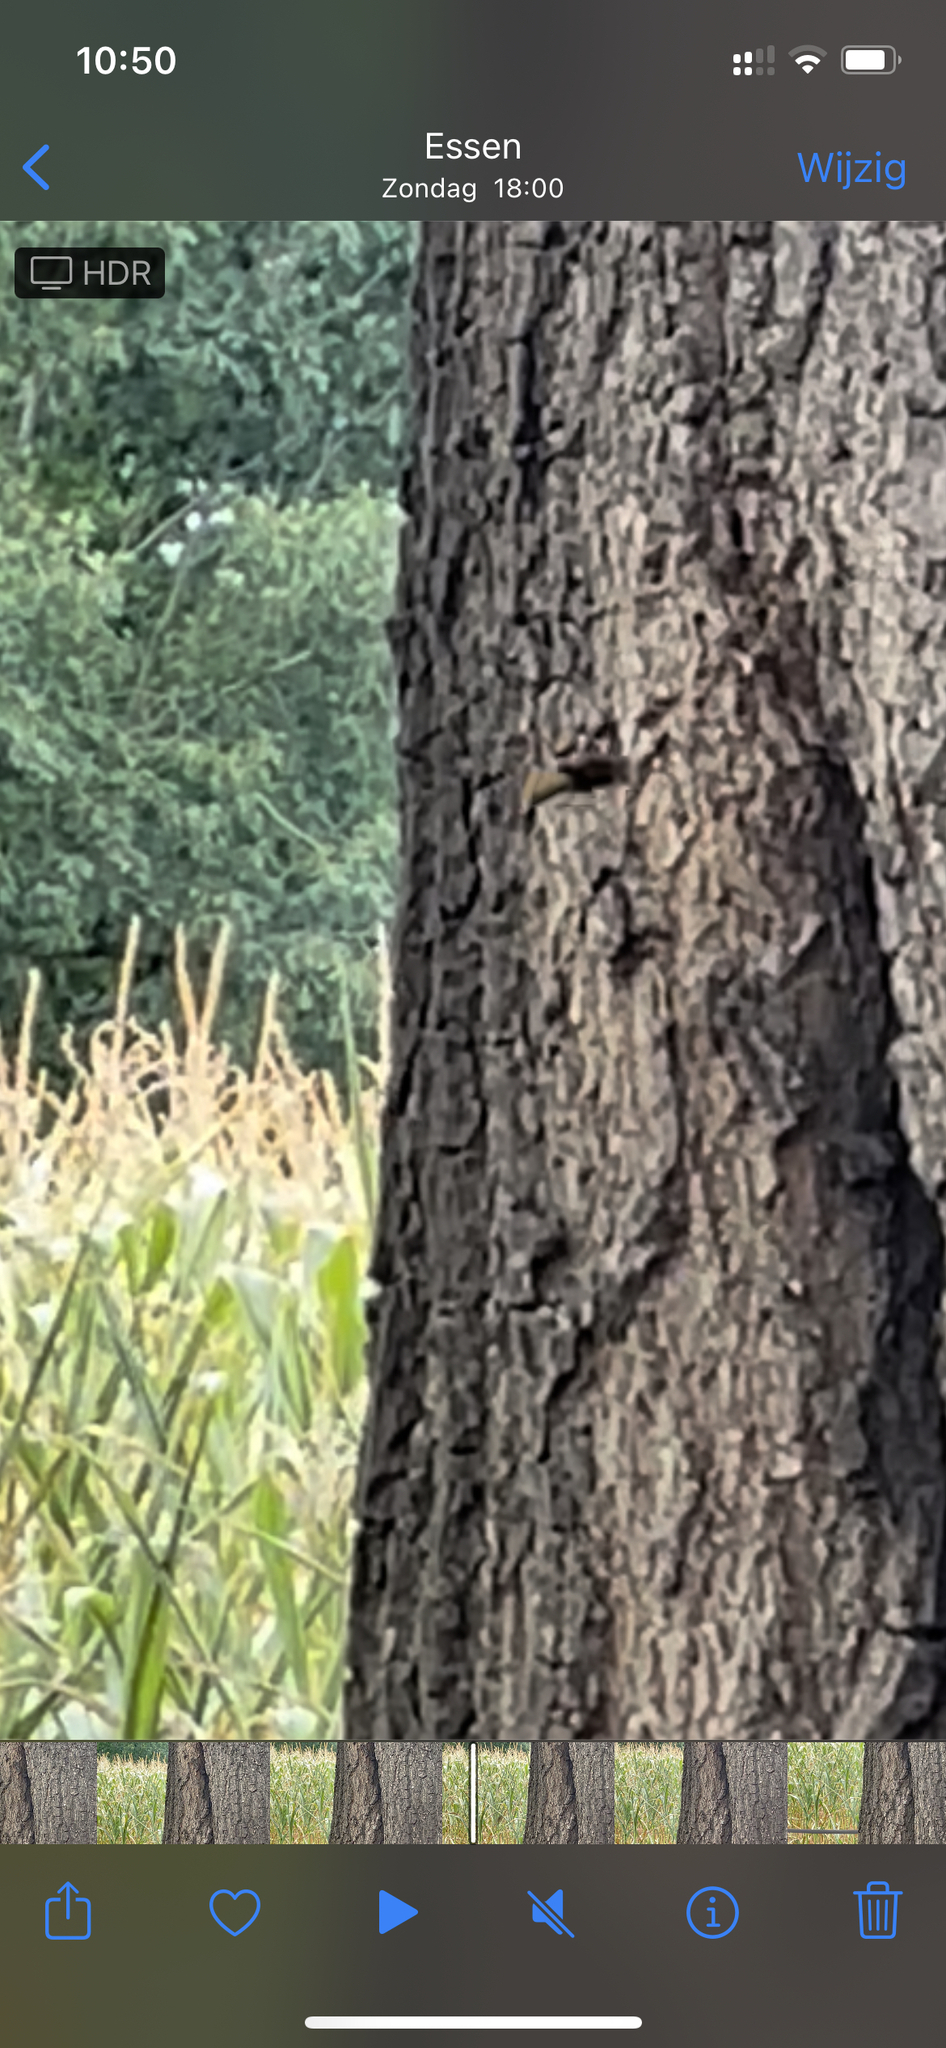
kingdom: Animalia
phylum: Arthropoda
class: Insecta
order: Hymenoptera
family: Vespidae
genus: Vespa
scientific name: Vespa crabro
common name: Hornet
